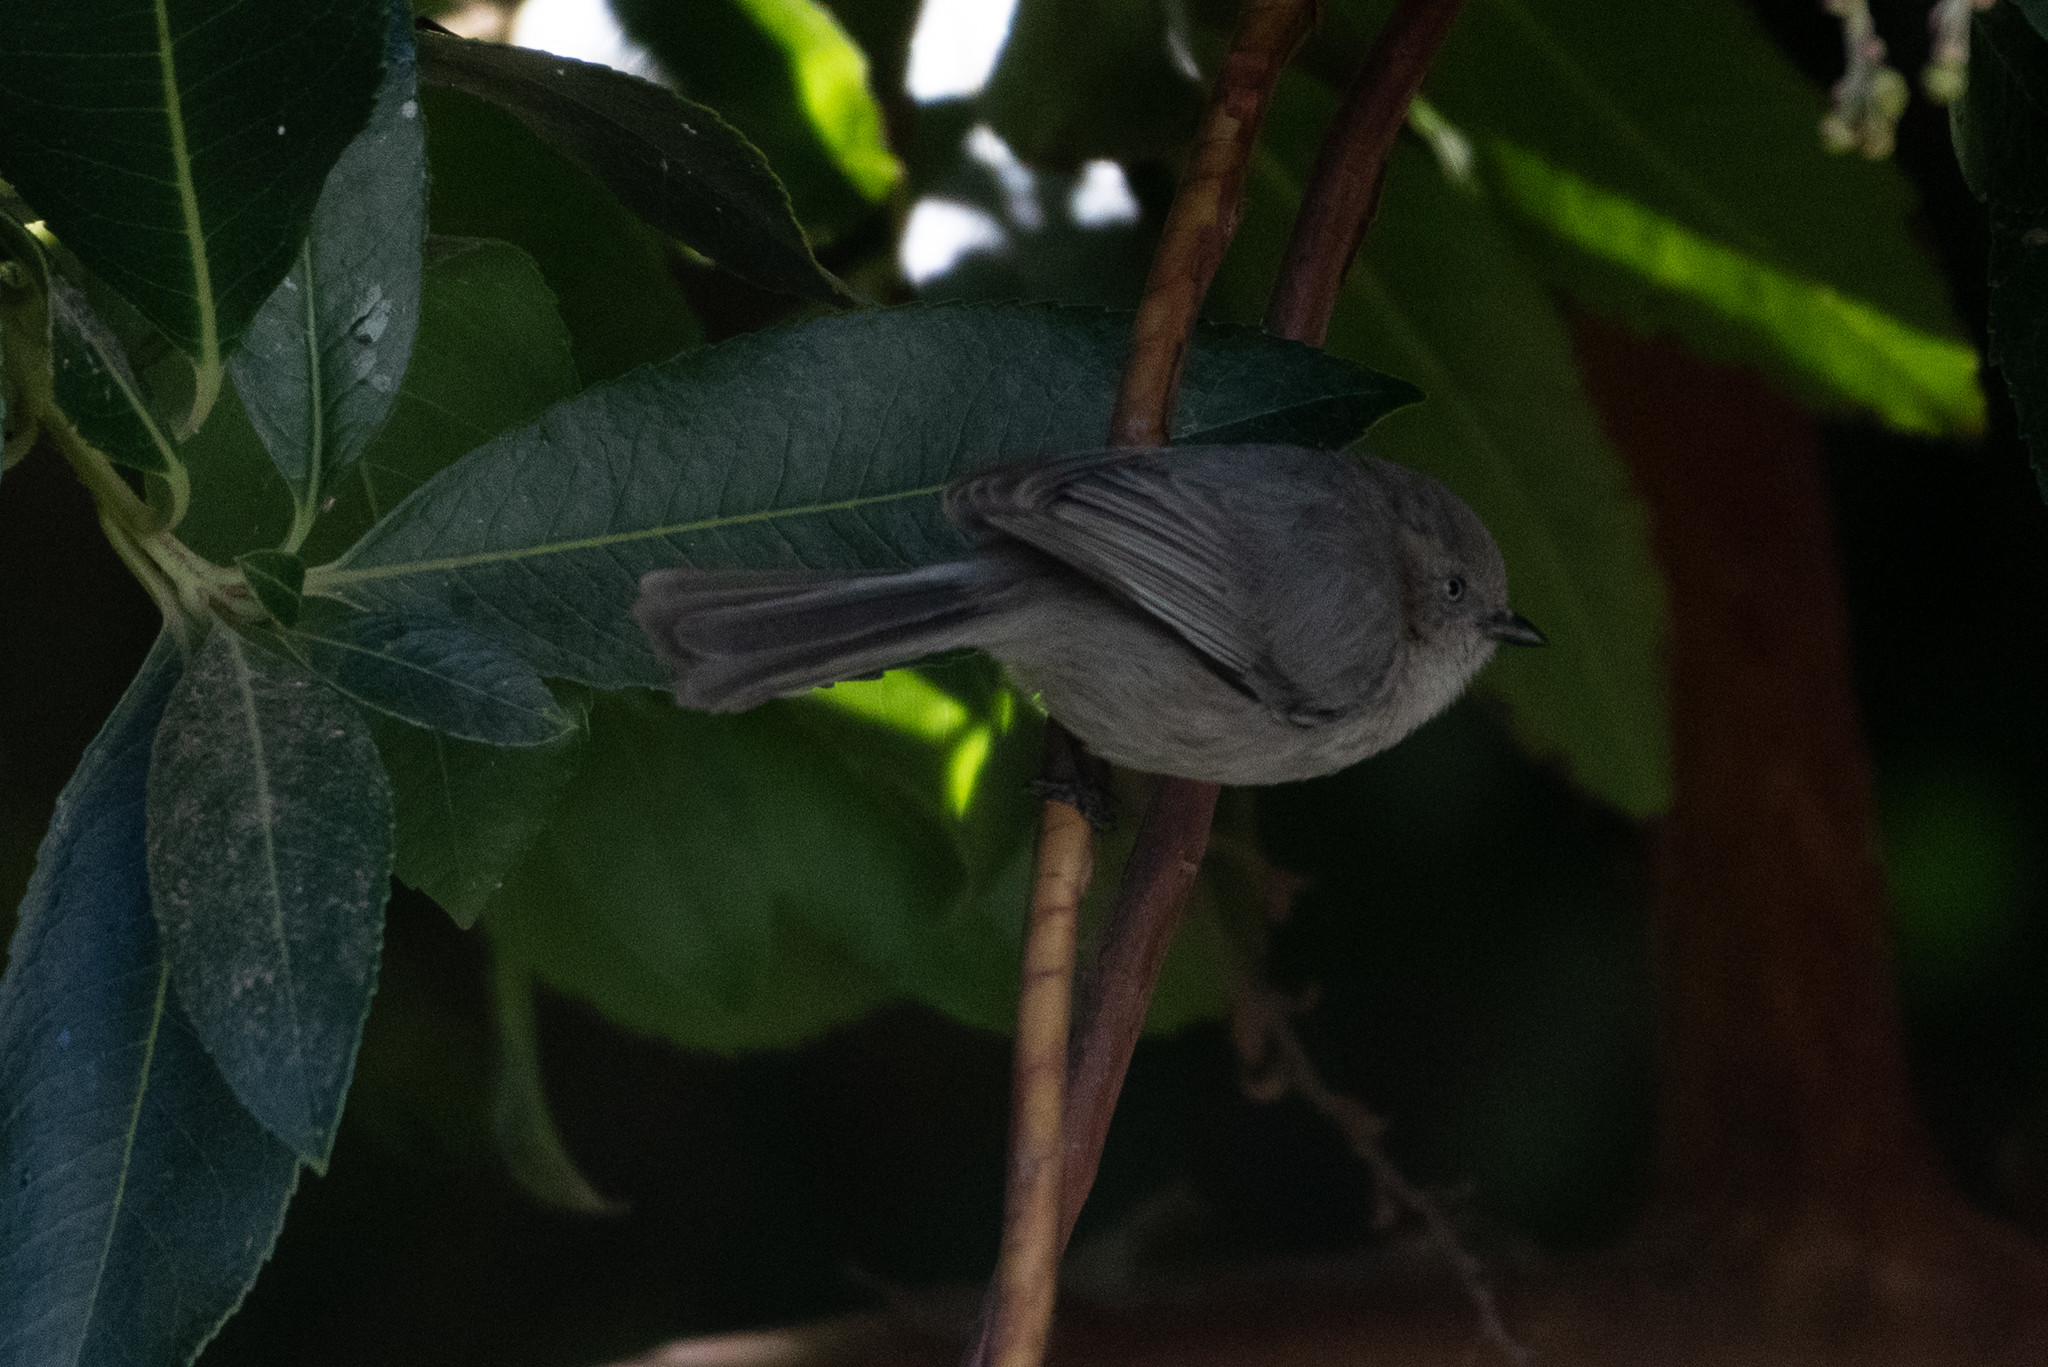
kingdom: Animalia
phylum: Chordata
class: Aves
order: Passeriformes
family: Aegithalidae
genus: Psaltriparus
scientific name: Psaltriparus minimus
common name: American bushtit
